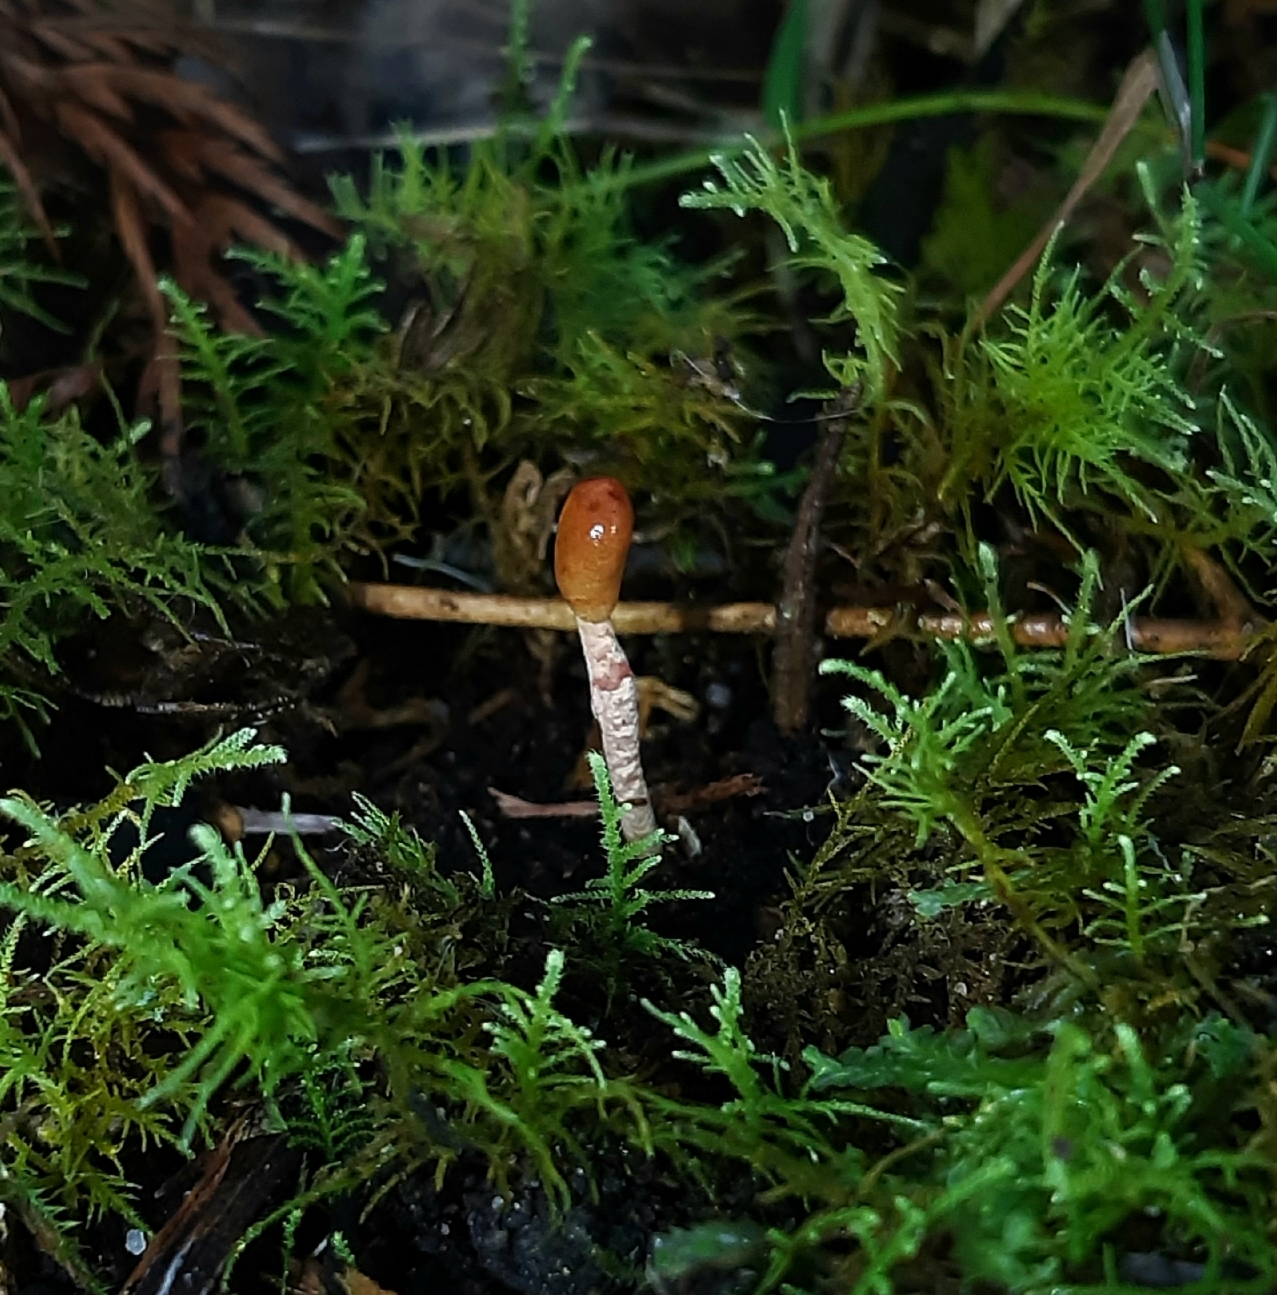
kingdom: Fungi
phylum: Ascomycota
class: Sordariomycetes
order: Hypocreales
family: Cordycipitaceae
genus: Cordyceps
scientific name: Cordyceps meneristitis
